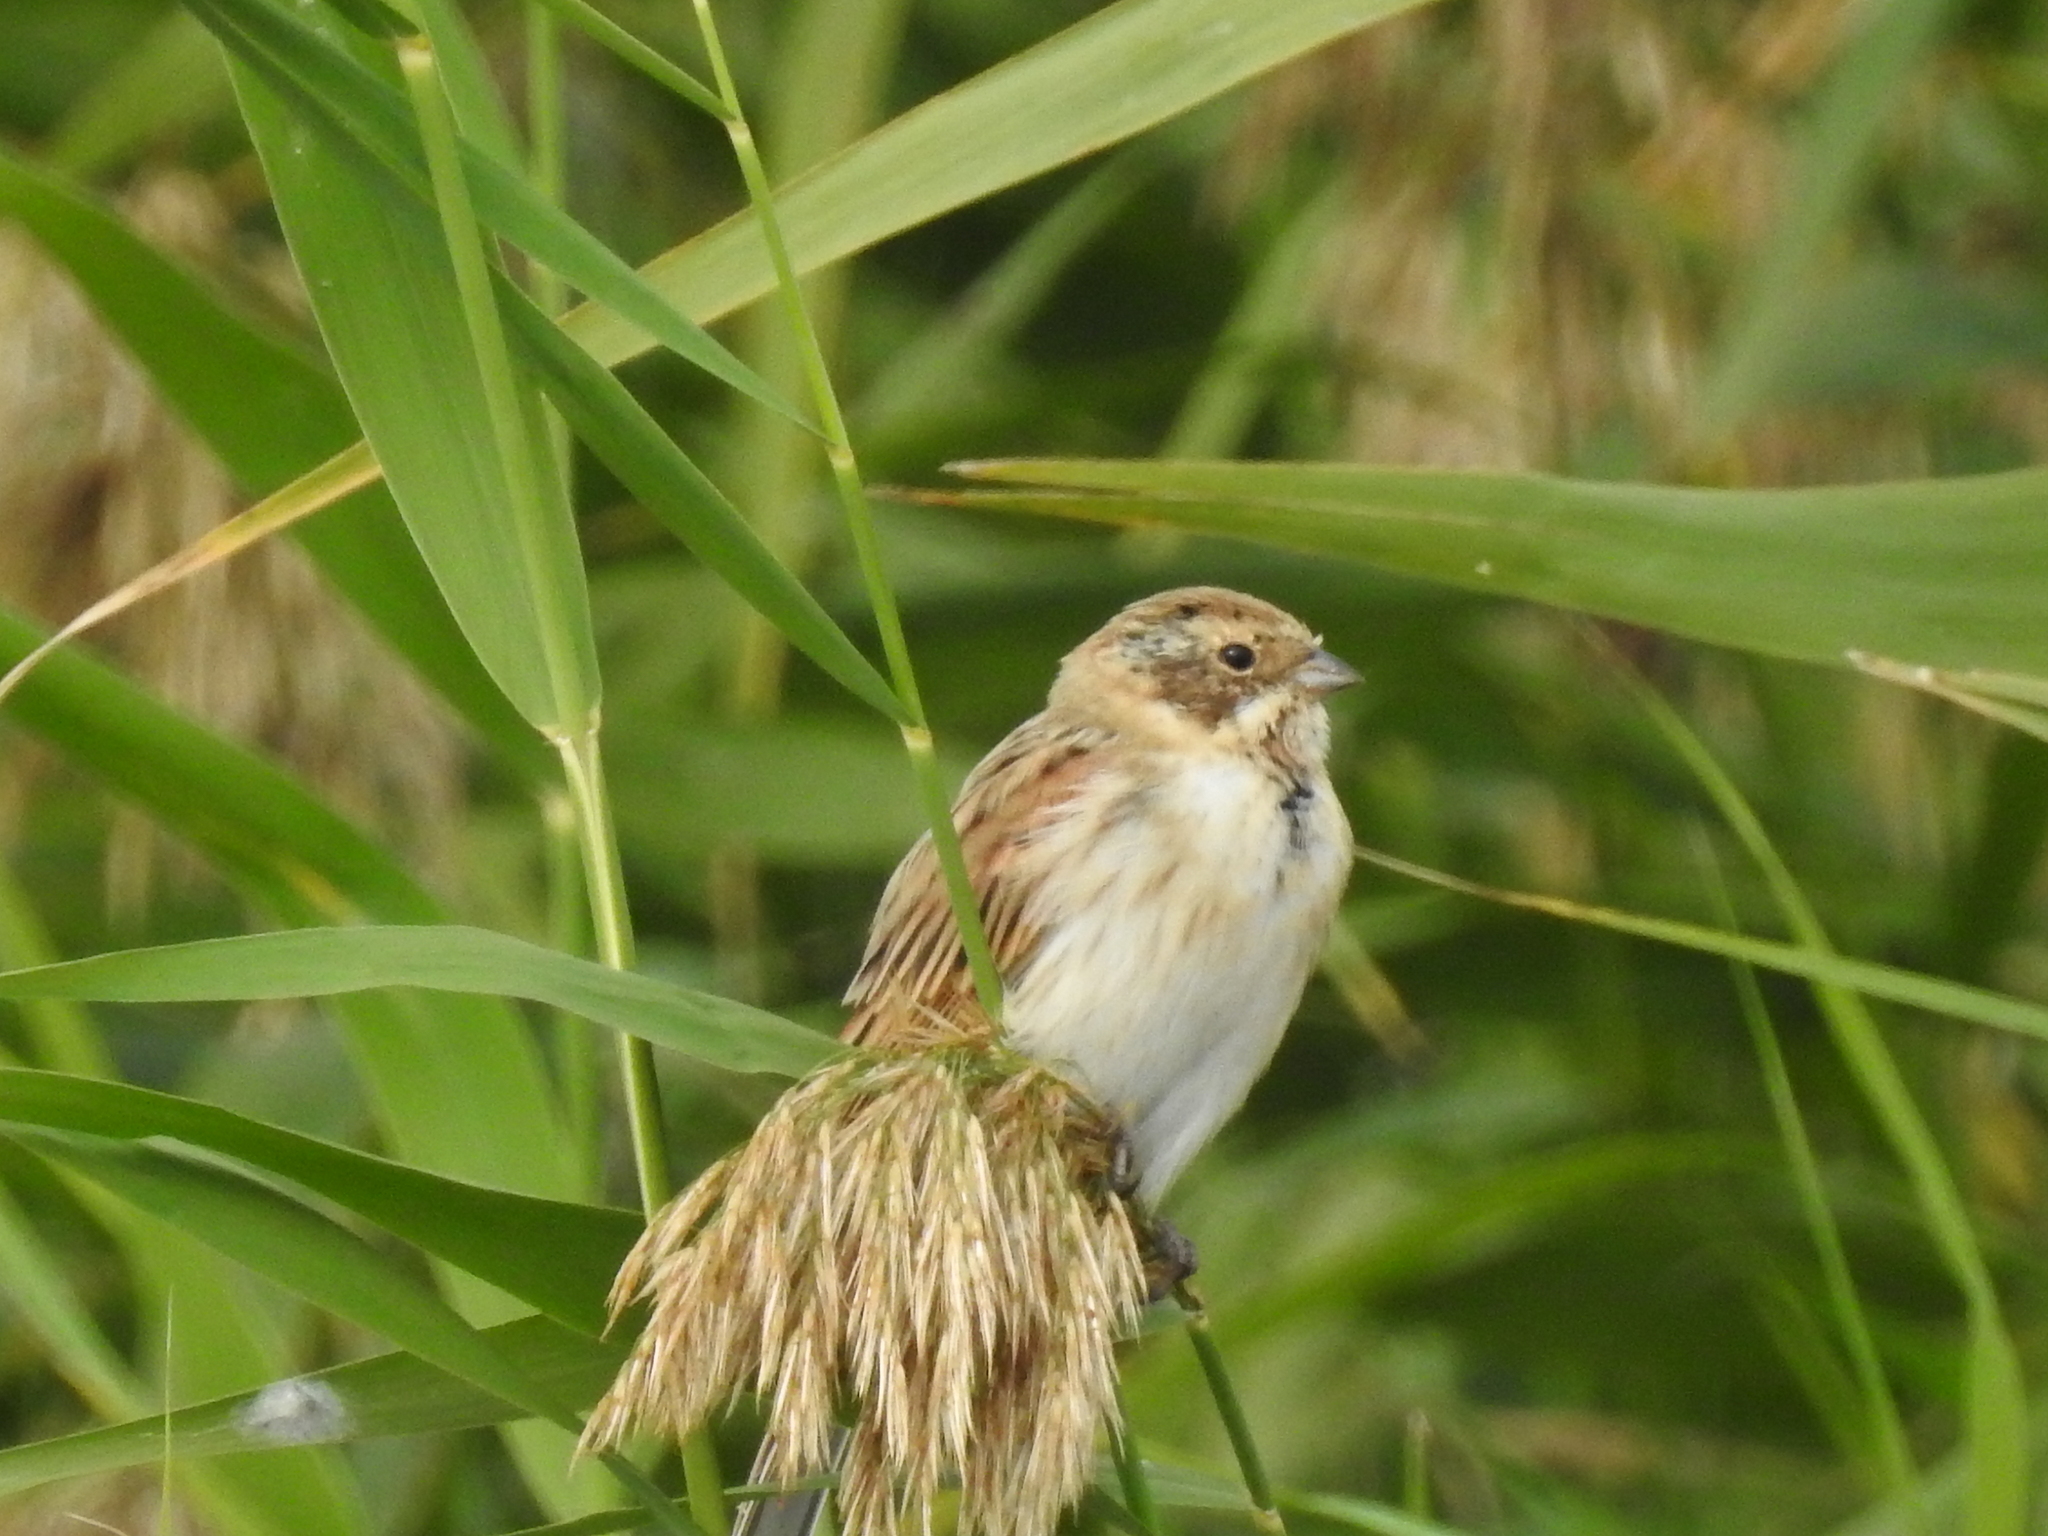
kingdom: Animalia
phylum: Chordata
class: Aves
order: Passeriformes
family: Emberizidae
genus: Emberiza
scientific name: Emberiza schoeniclus
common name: Reed bunting
